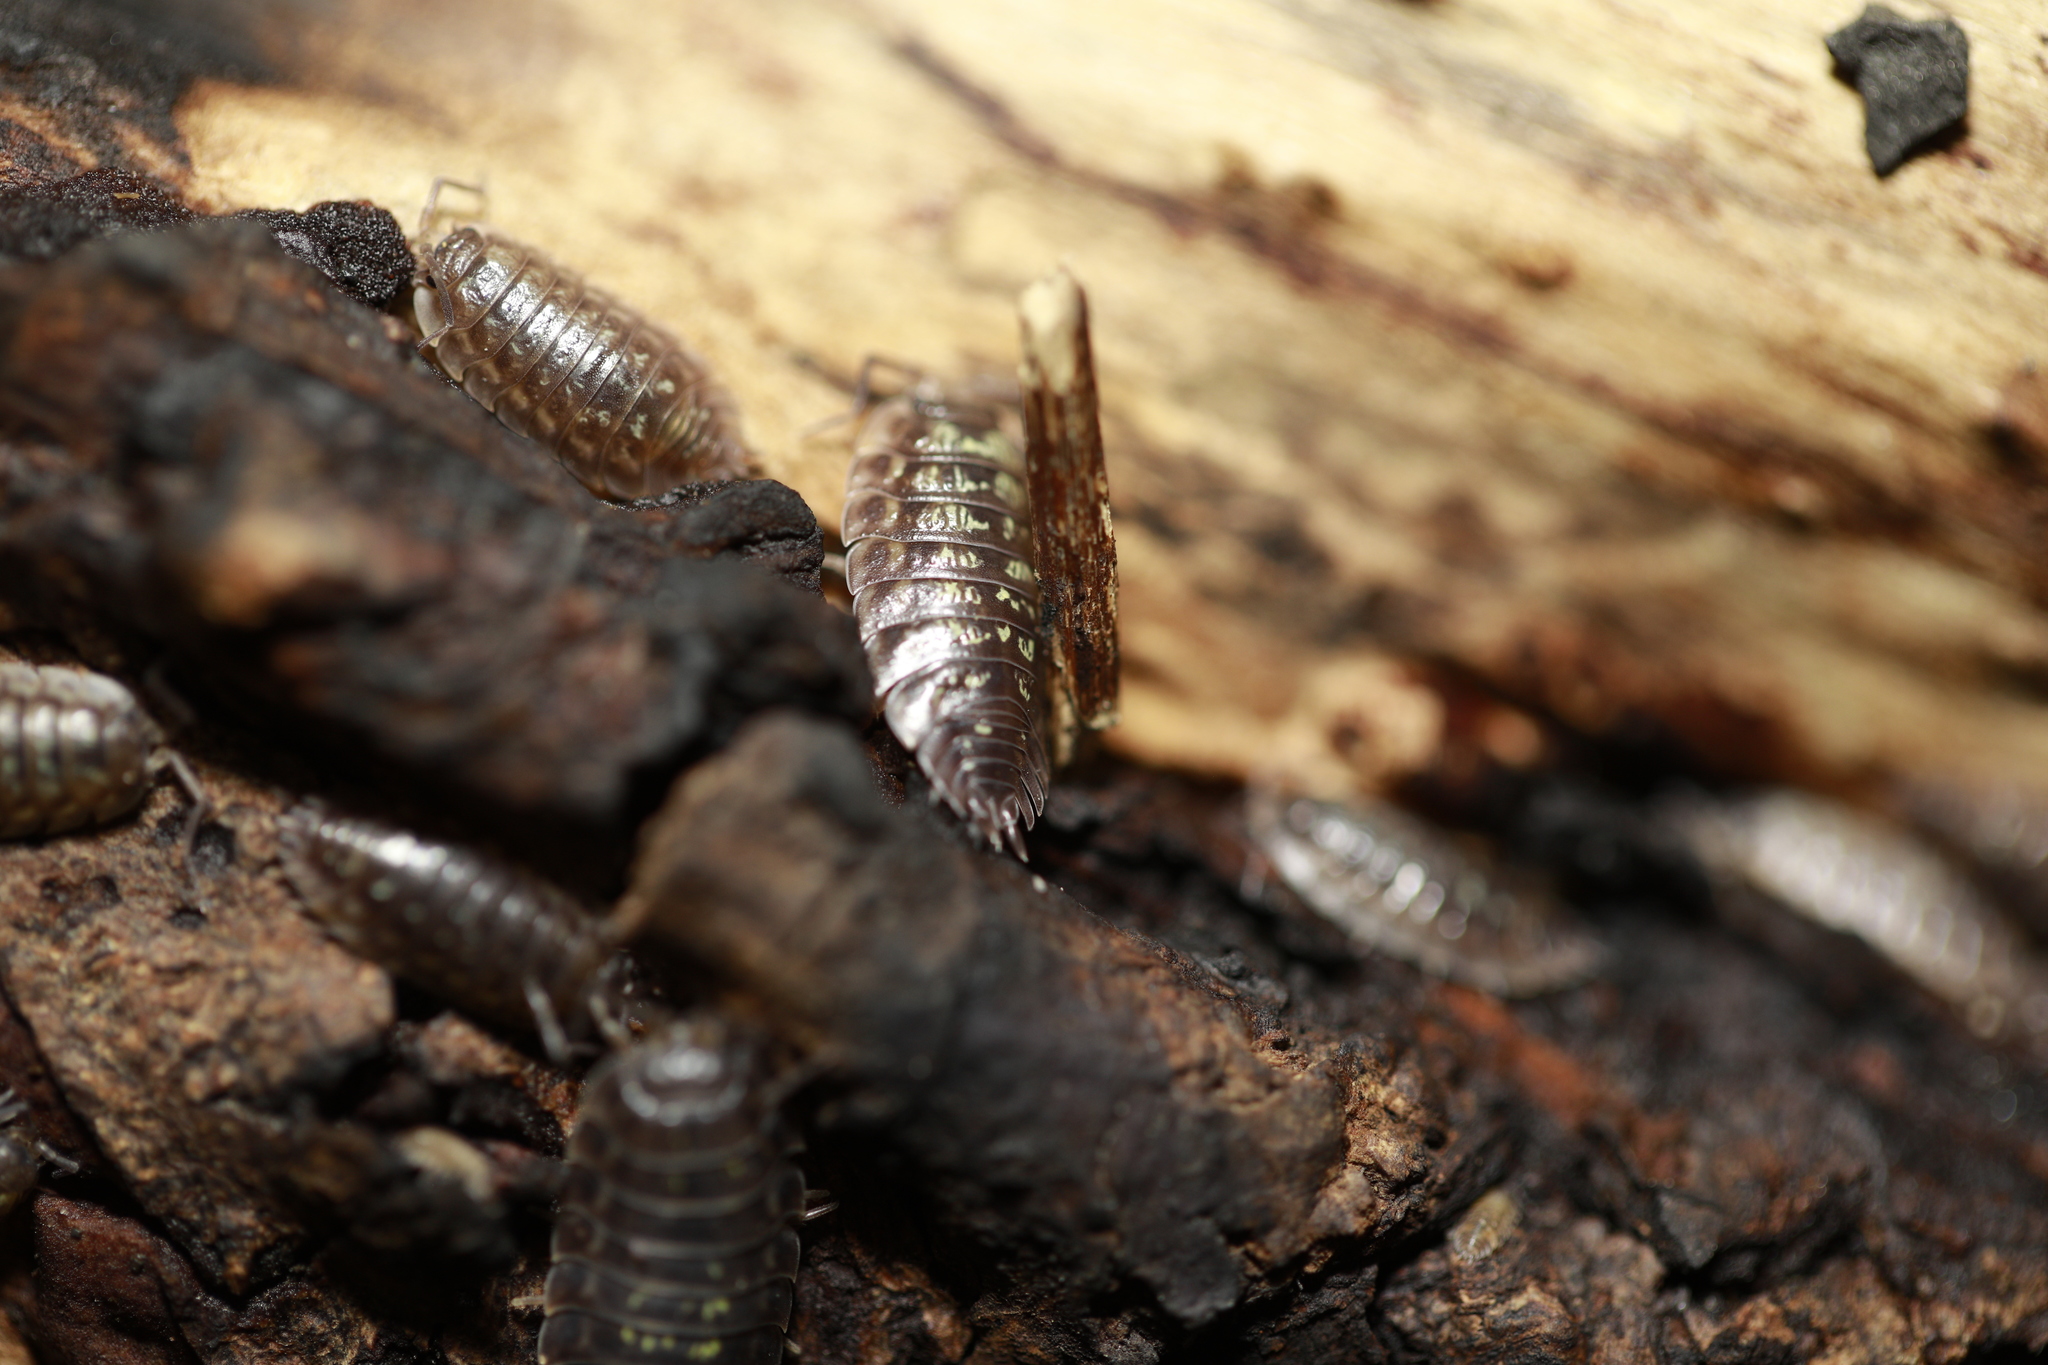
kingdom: Animalia
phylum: Arthropoda
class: Malacostraca
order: Isopoda
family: Oniscidae
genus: Oniscus
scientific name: Oniscus asellus
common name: Common shiny woodlouse
